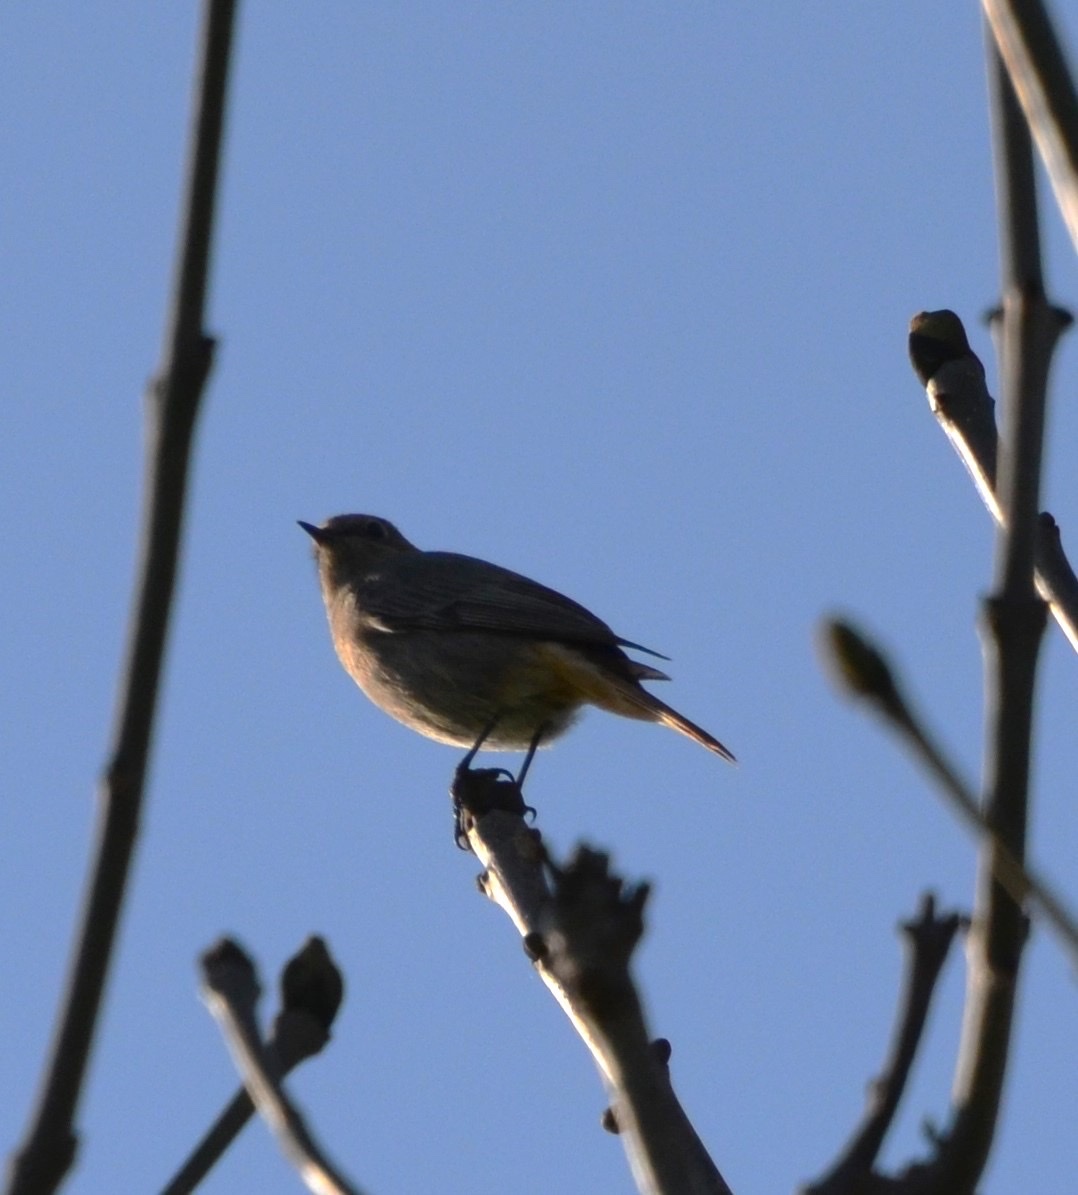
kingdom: Animalia
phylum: Chordata
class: Aves
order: Passeriformes
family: Muscicapidae
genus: Phoenicurus
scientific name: Phoenicurus ochruros
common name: Black redstart
